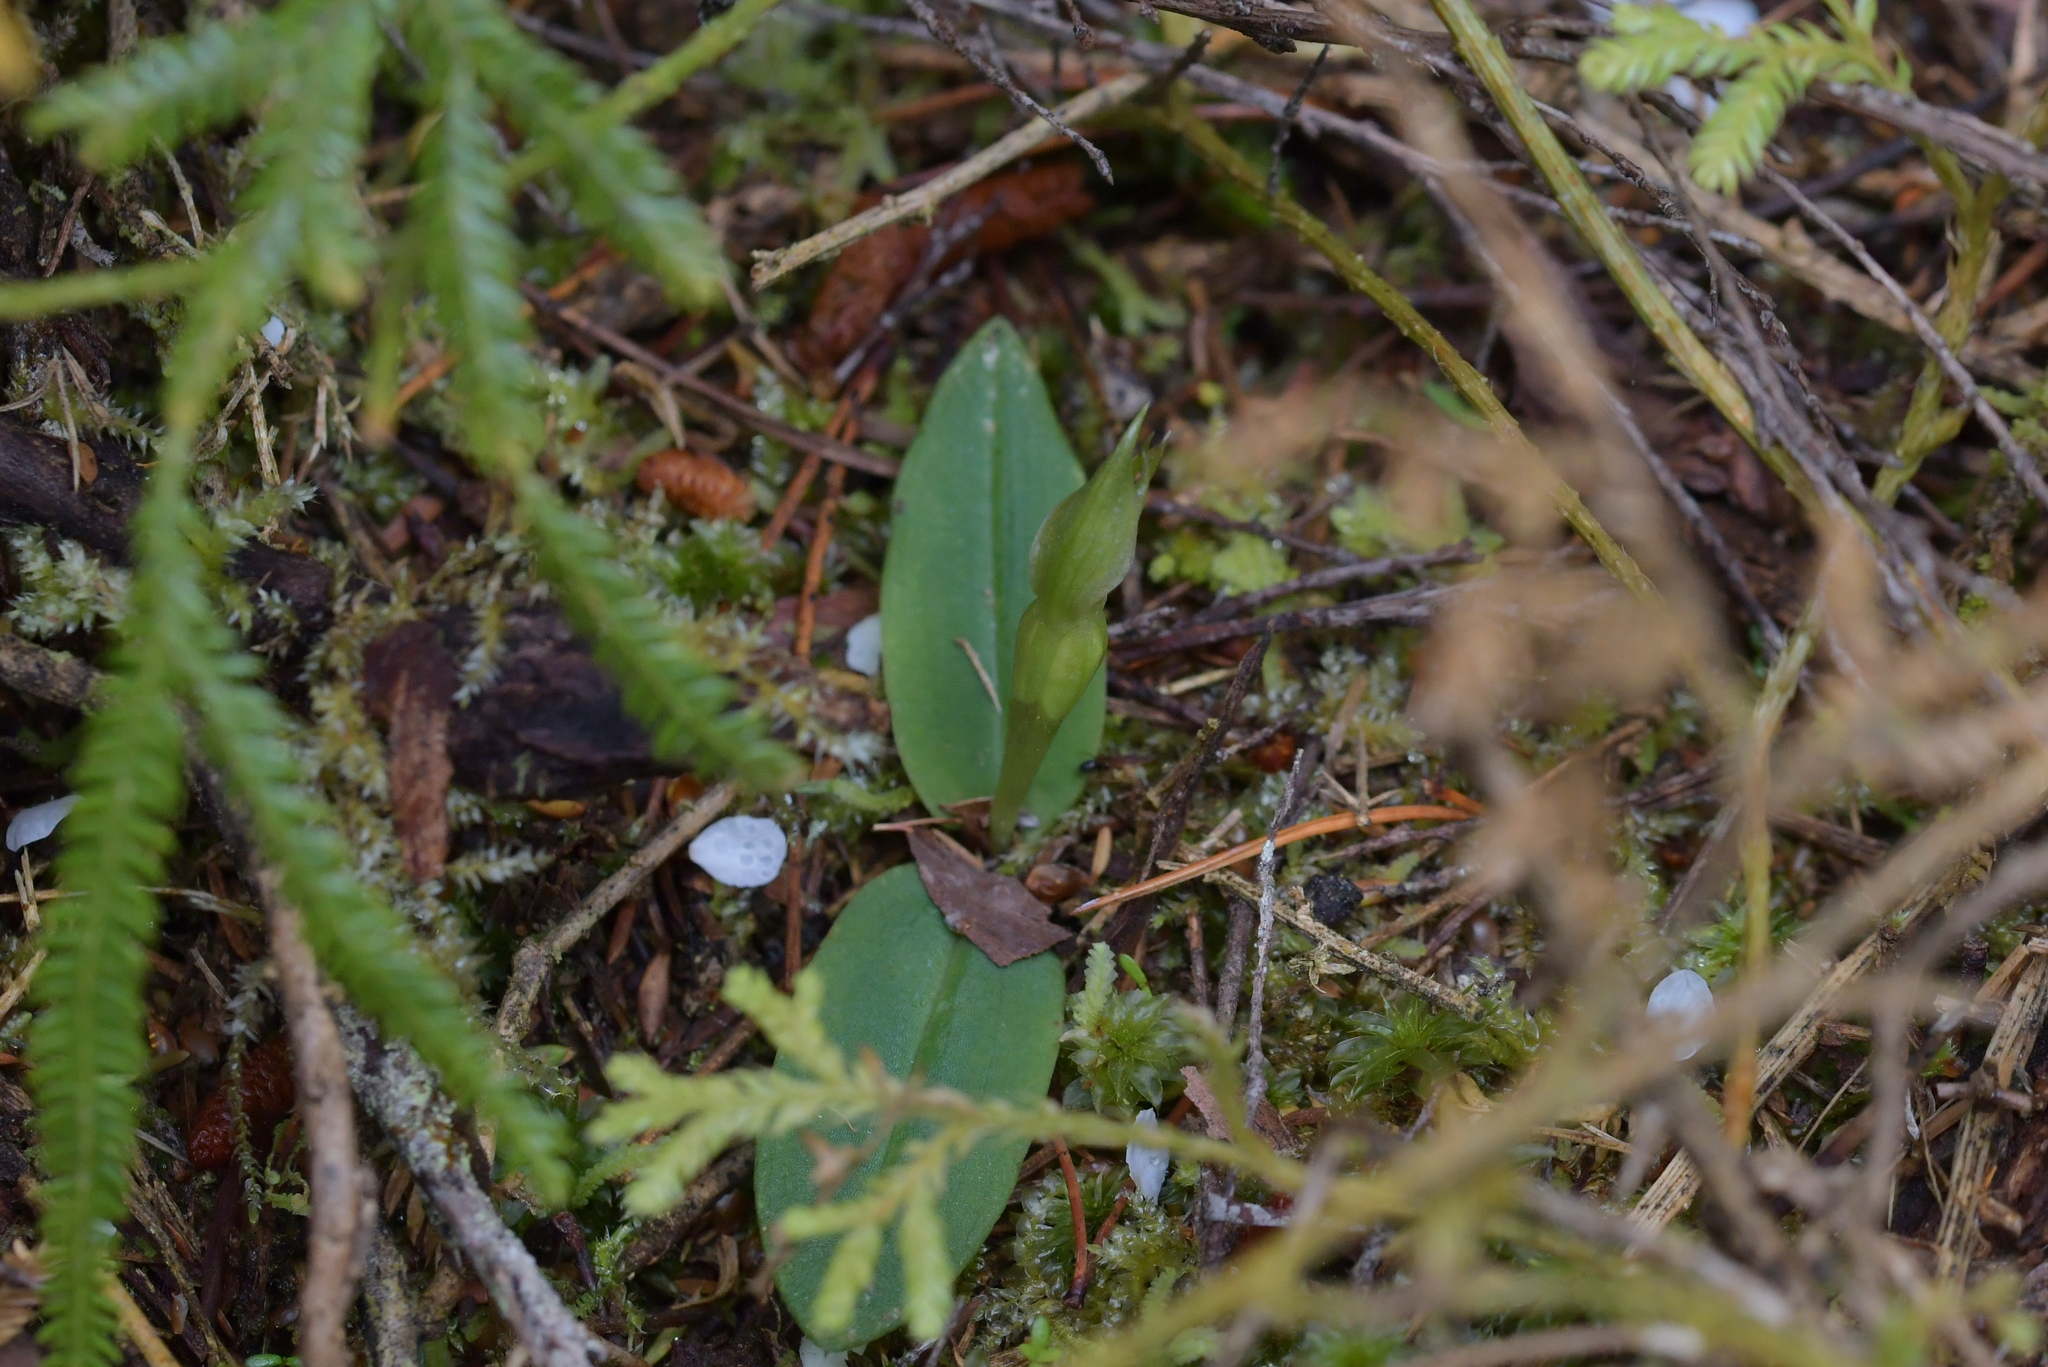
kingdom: Plantae
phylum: Tracheophyta
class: Liliopsida
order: Asparagales
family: Orchidaceae
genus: Chiloglottis
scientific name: Chiloglottis cornuta
